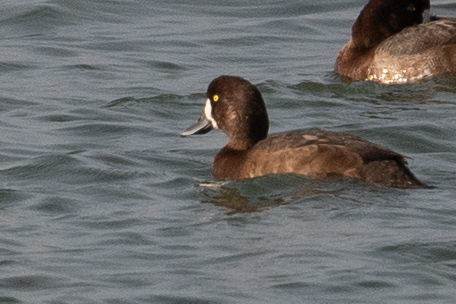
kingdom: Animalia
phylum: Chordata
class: Aves
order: Anseriformes
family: Anatidae
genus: Aythya
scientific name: Aythya marila
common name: Greater scaup
